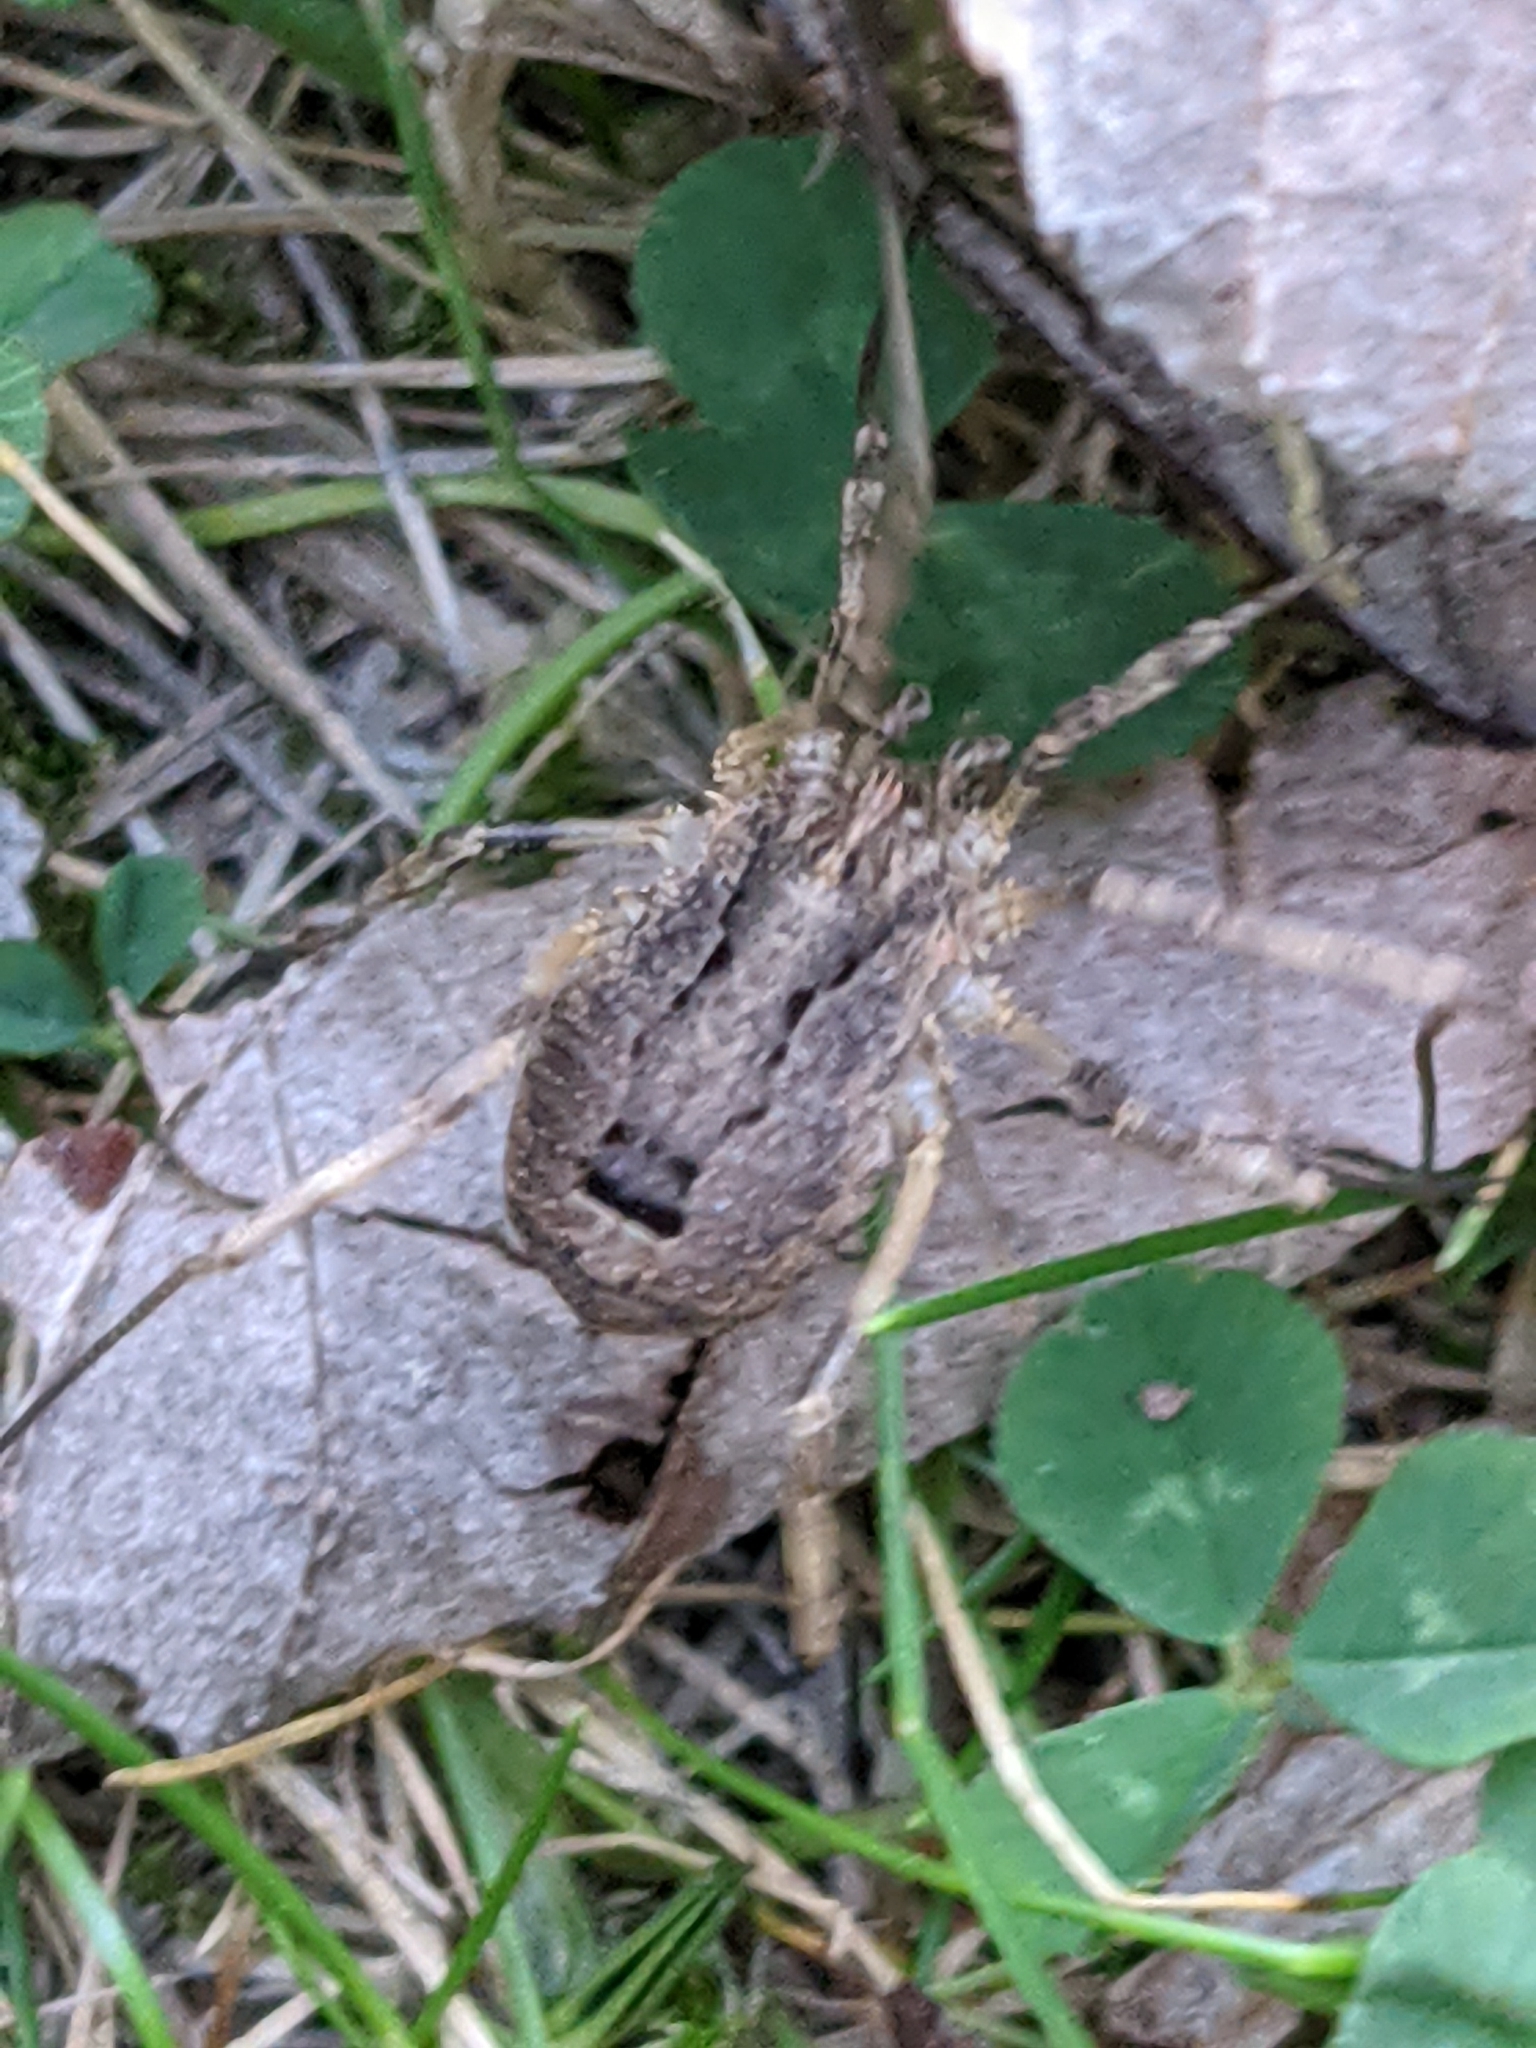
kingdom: Animalia
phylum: Arthropoda
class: Arachnida
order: Opiliones
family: Phalangiidae
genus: Odiellus
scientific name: Odiellus spinosus
